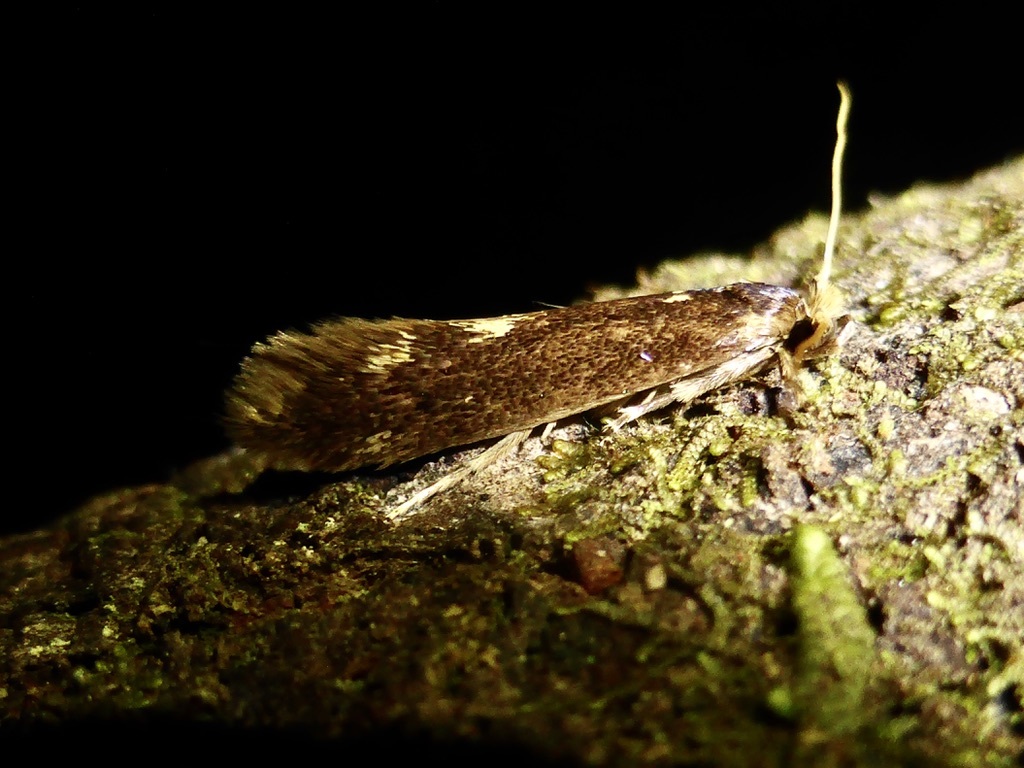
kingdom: Animalia
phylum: Arthropoda
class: Insecta
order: Lepidoptera
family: Tineidae
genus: Opogona
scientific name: Opogona omoscopa
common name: Moth
